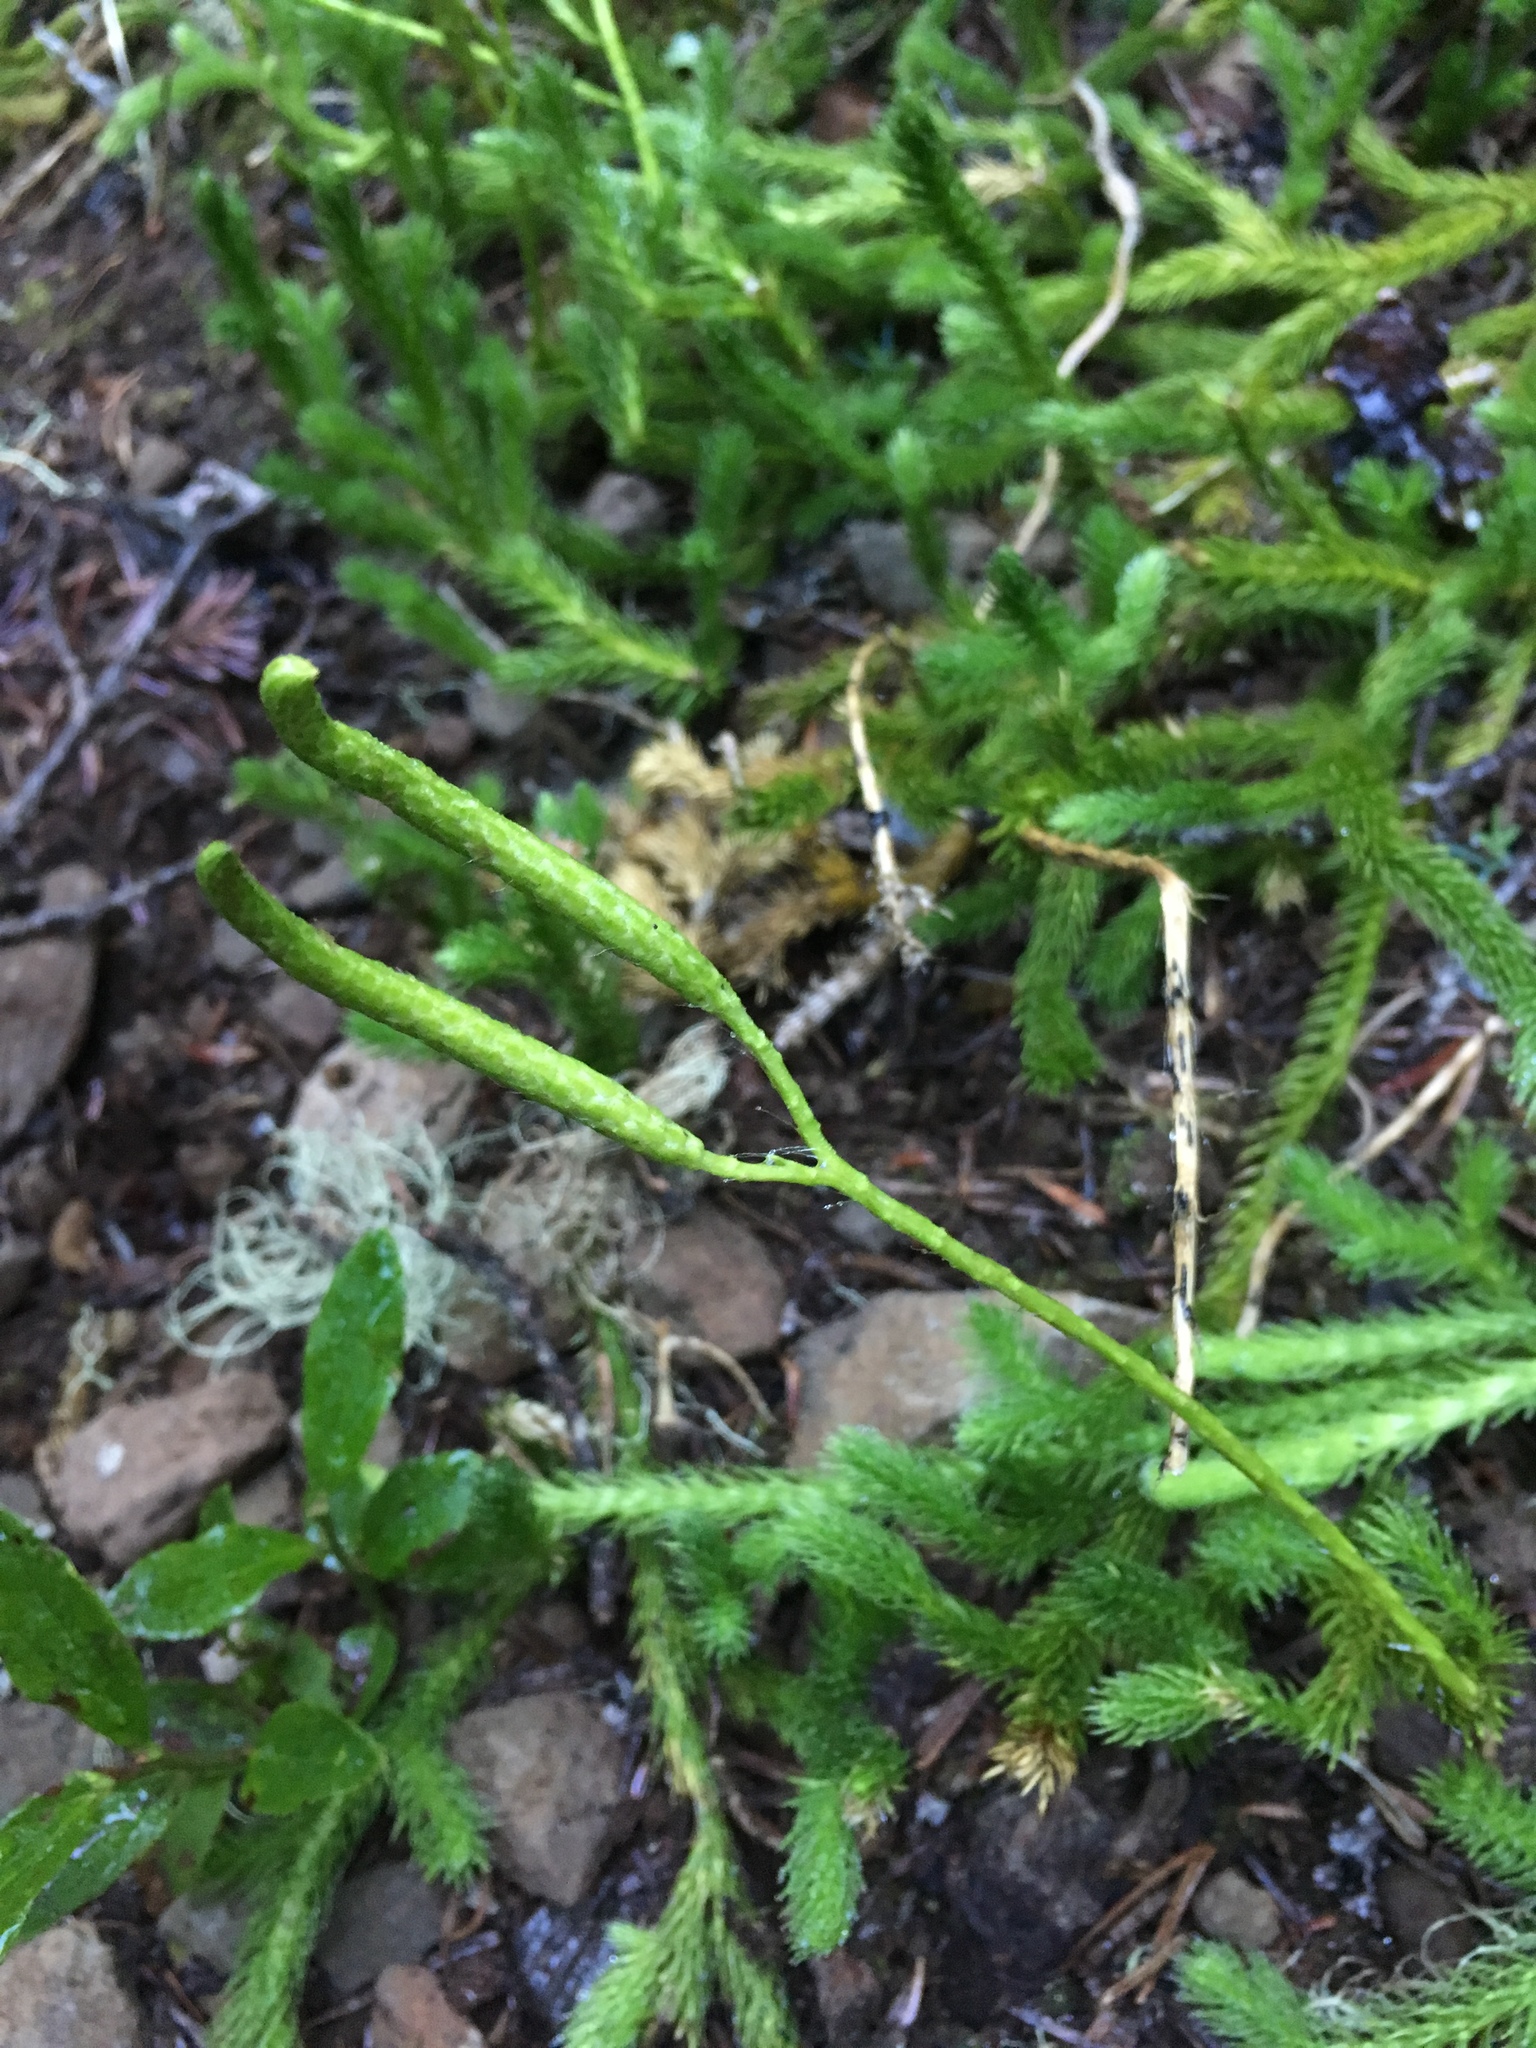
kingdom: Plantae
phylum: Tracheophyta
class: Lycopodiopsida
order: Lycopodiales
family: Lycopodiaceae
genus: Lycopodium
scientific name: Lycopodium clavatum
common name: Stag's-horn clubmoss
